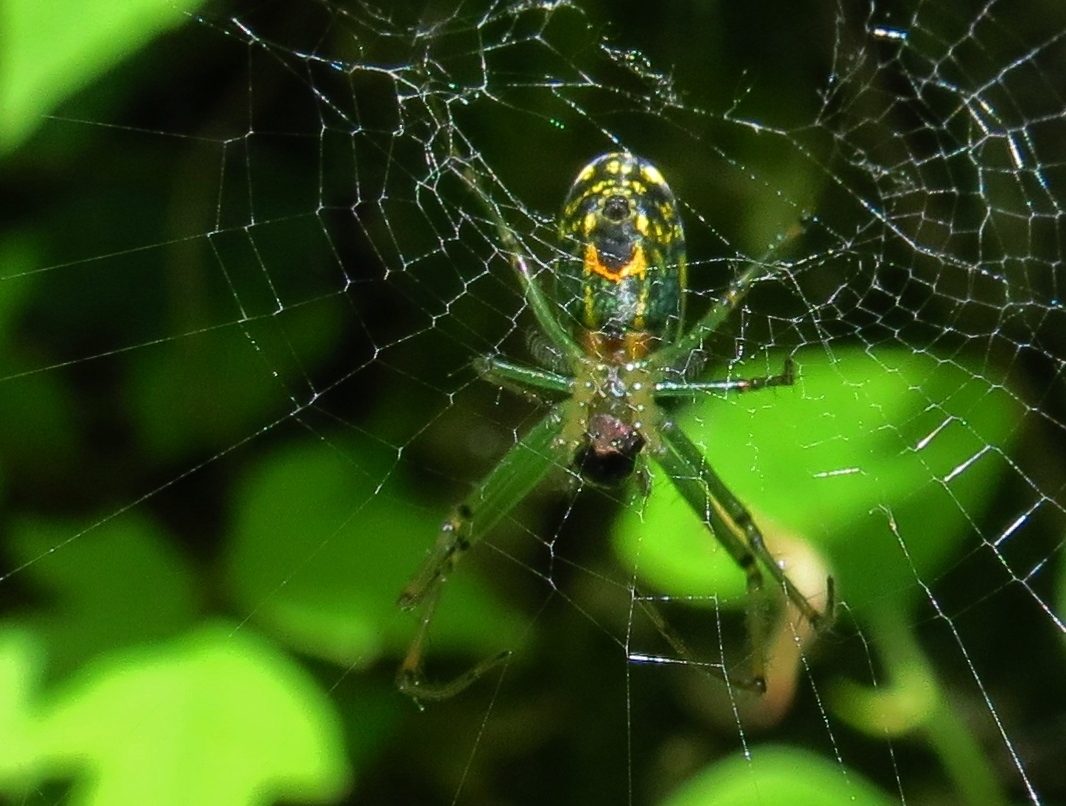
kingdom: Animalia
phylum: Arthropoda
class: Arachnida
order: Araneae
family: Tetragnathidae
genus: Leucauge
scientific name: Leucauge venusta
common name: Longjawed orb weavers
